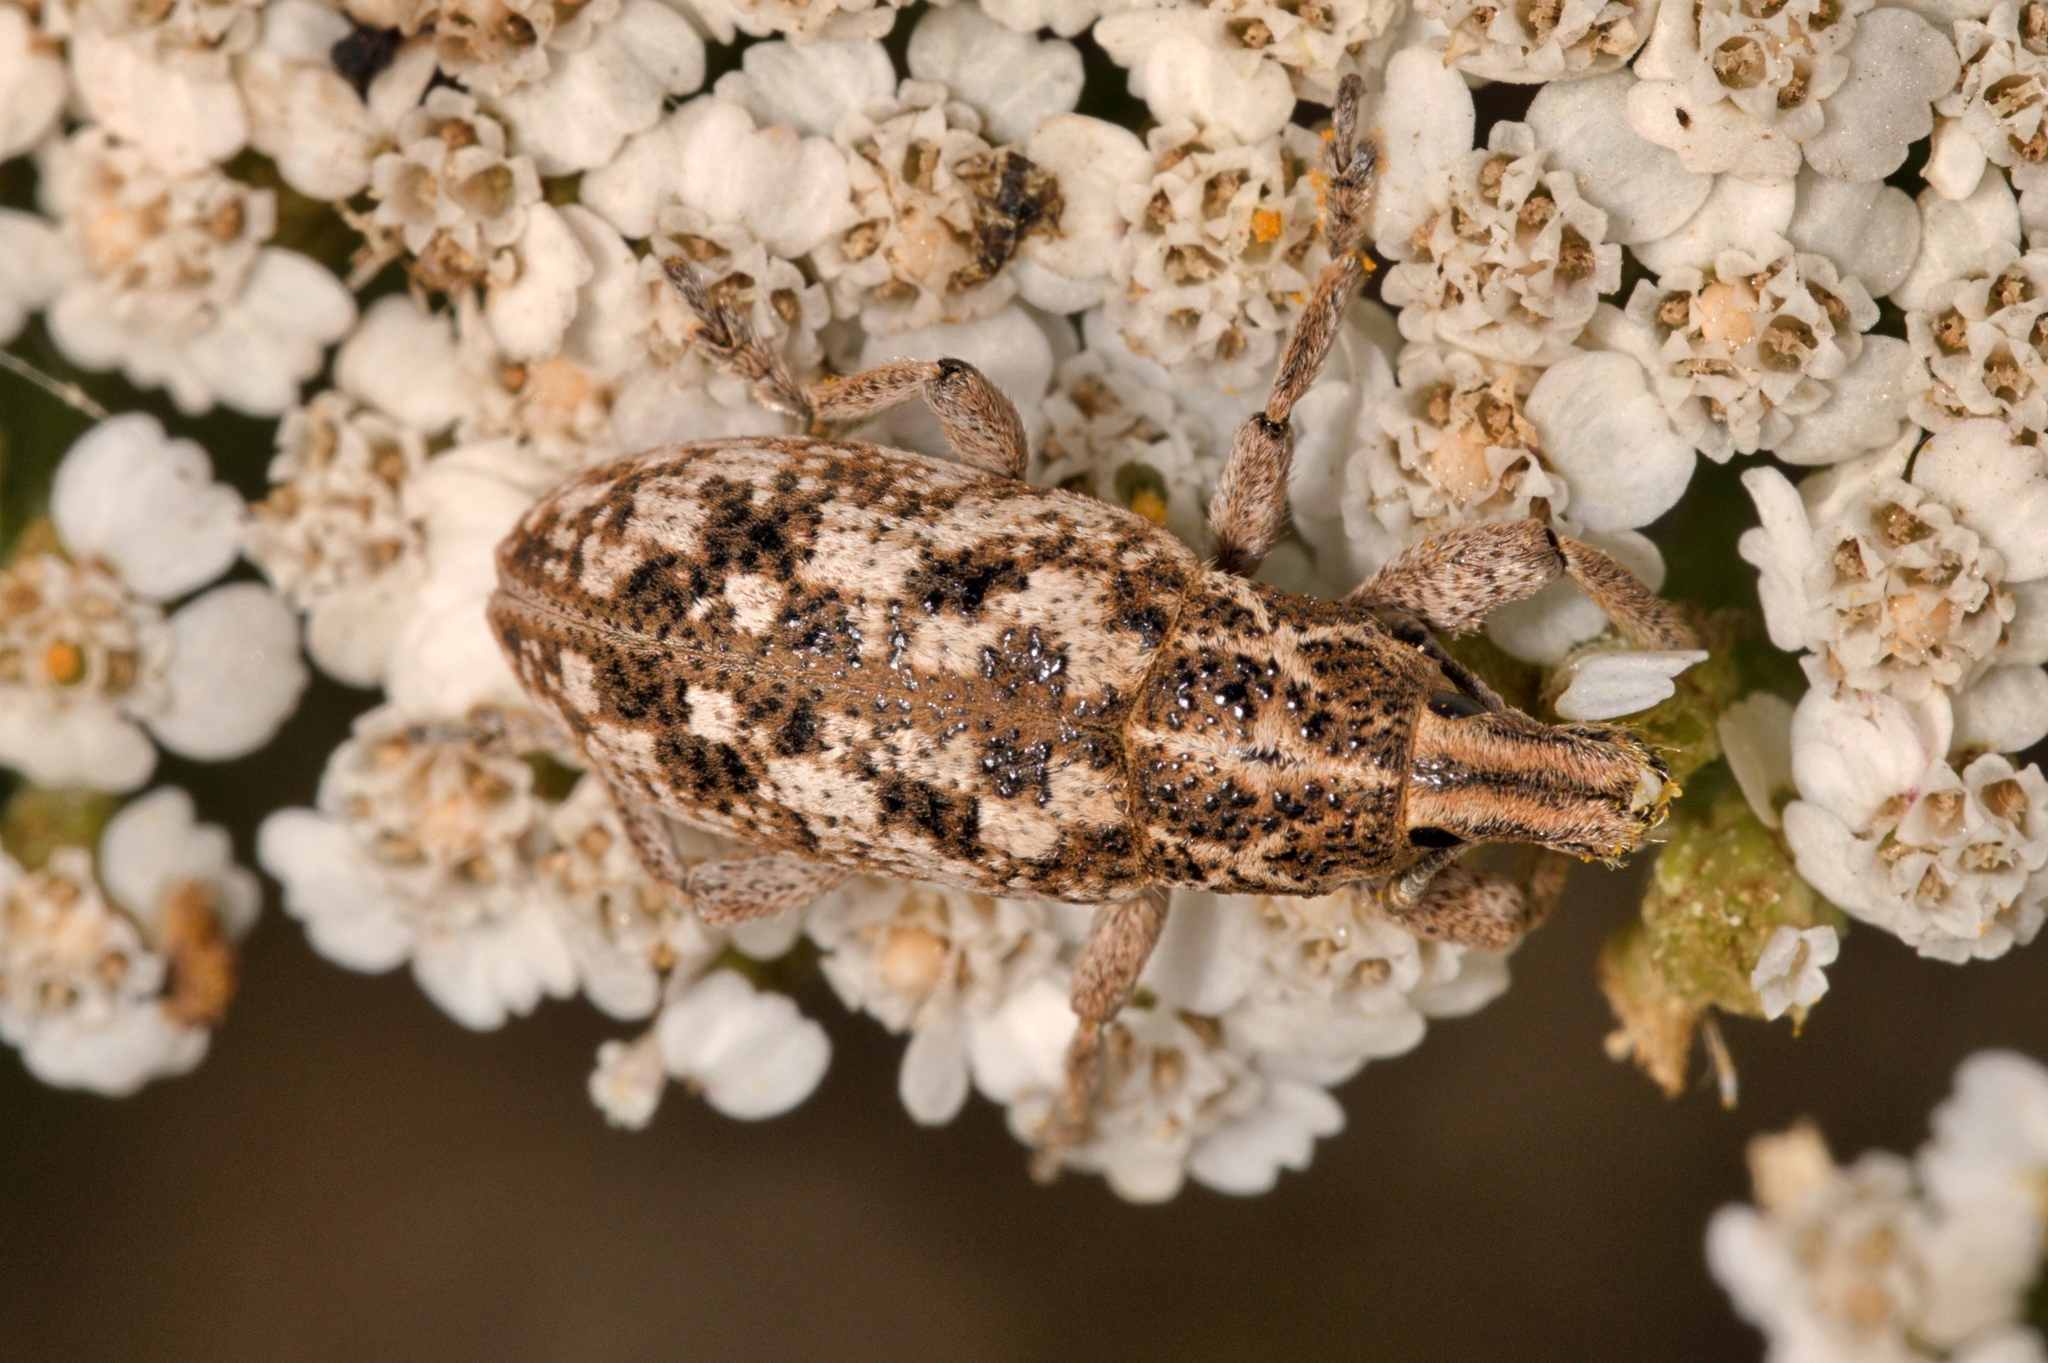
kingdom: Animalia
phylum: Arthropoda
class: Insecta
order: Coleoptera
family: Curculionidae
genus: Cyphocleonus
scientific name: Cyphocleonus dealbatus
